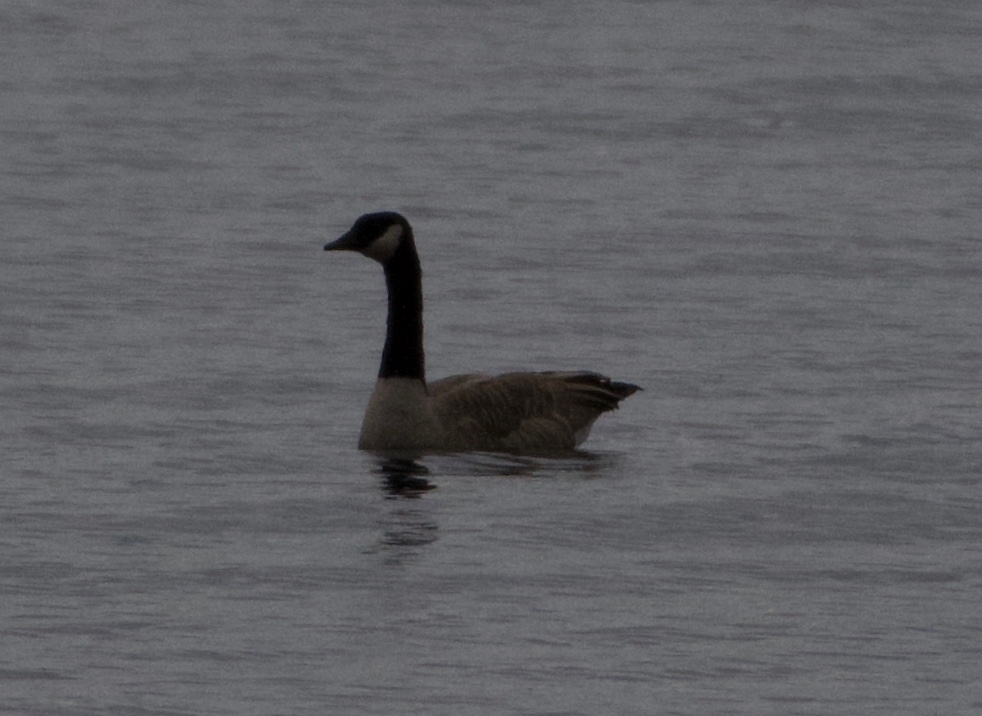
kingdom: Animalia
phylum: Chordata
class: Aves
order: Anseriformes
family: Anatidae
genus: Branta
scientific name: Branta canadensis
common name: Canada goose
